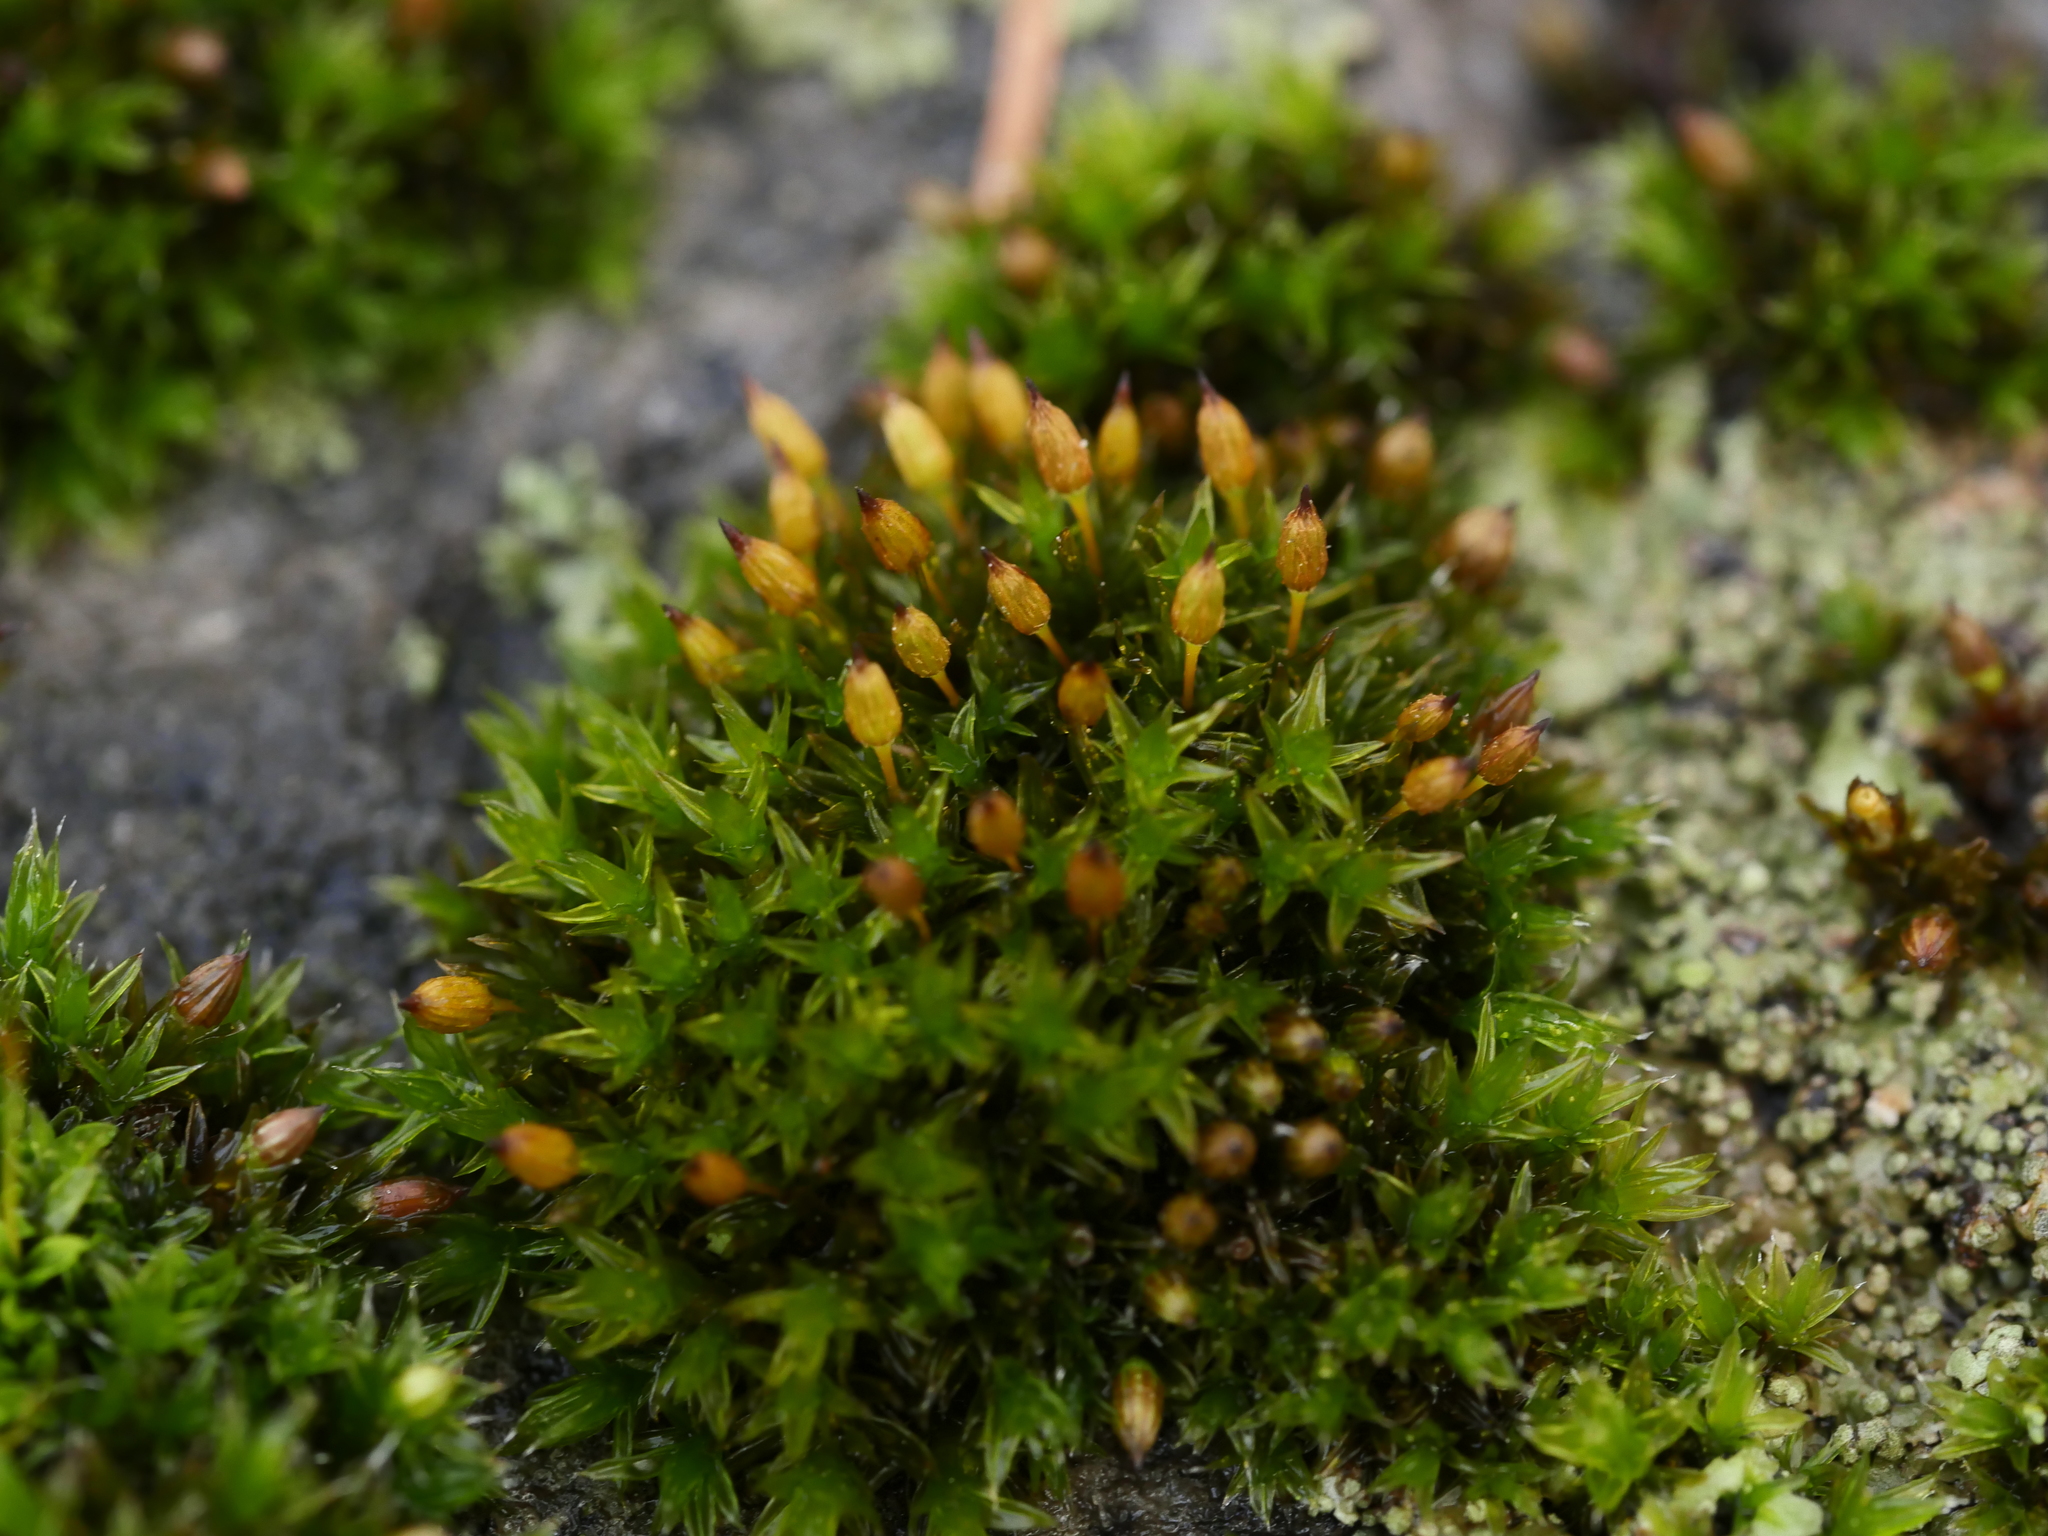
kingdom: Plantae
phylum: Bryophyta
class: Bryopsida
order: Orthotrichales
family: Orthotrichaceae
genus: Orthotrichum
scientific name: Orthotrichum anomalum
